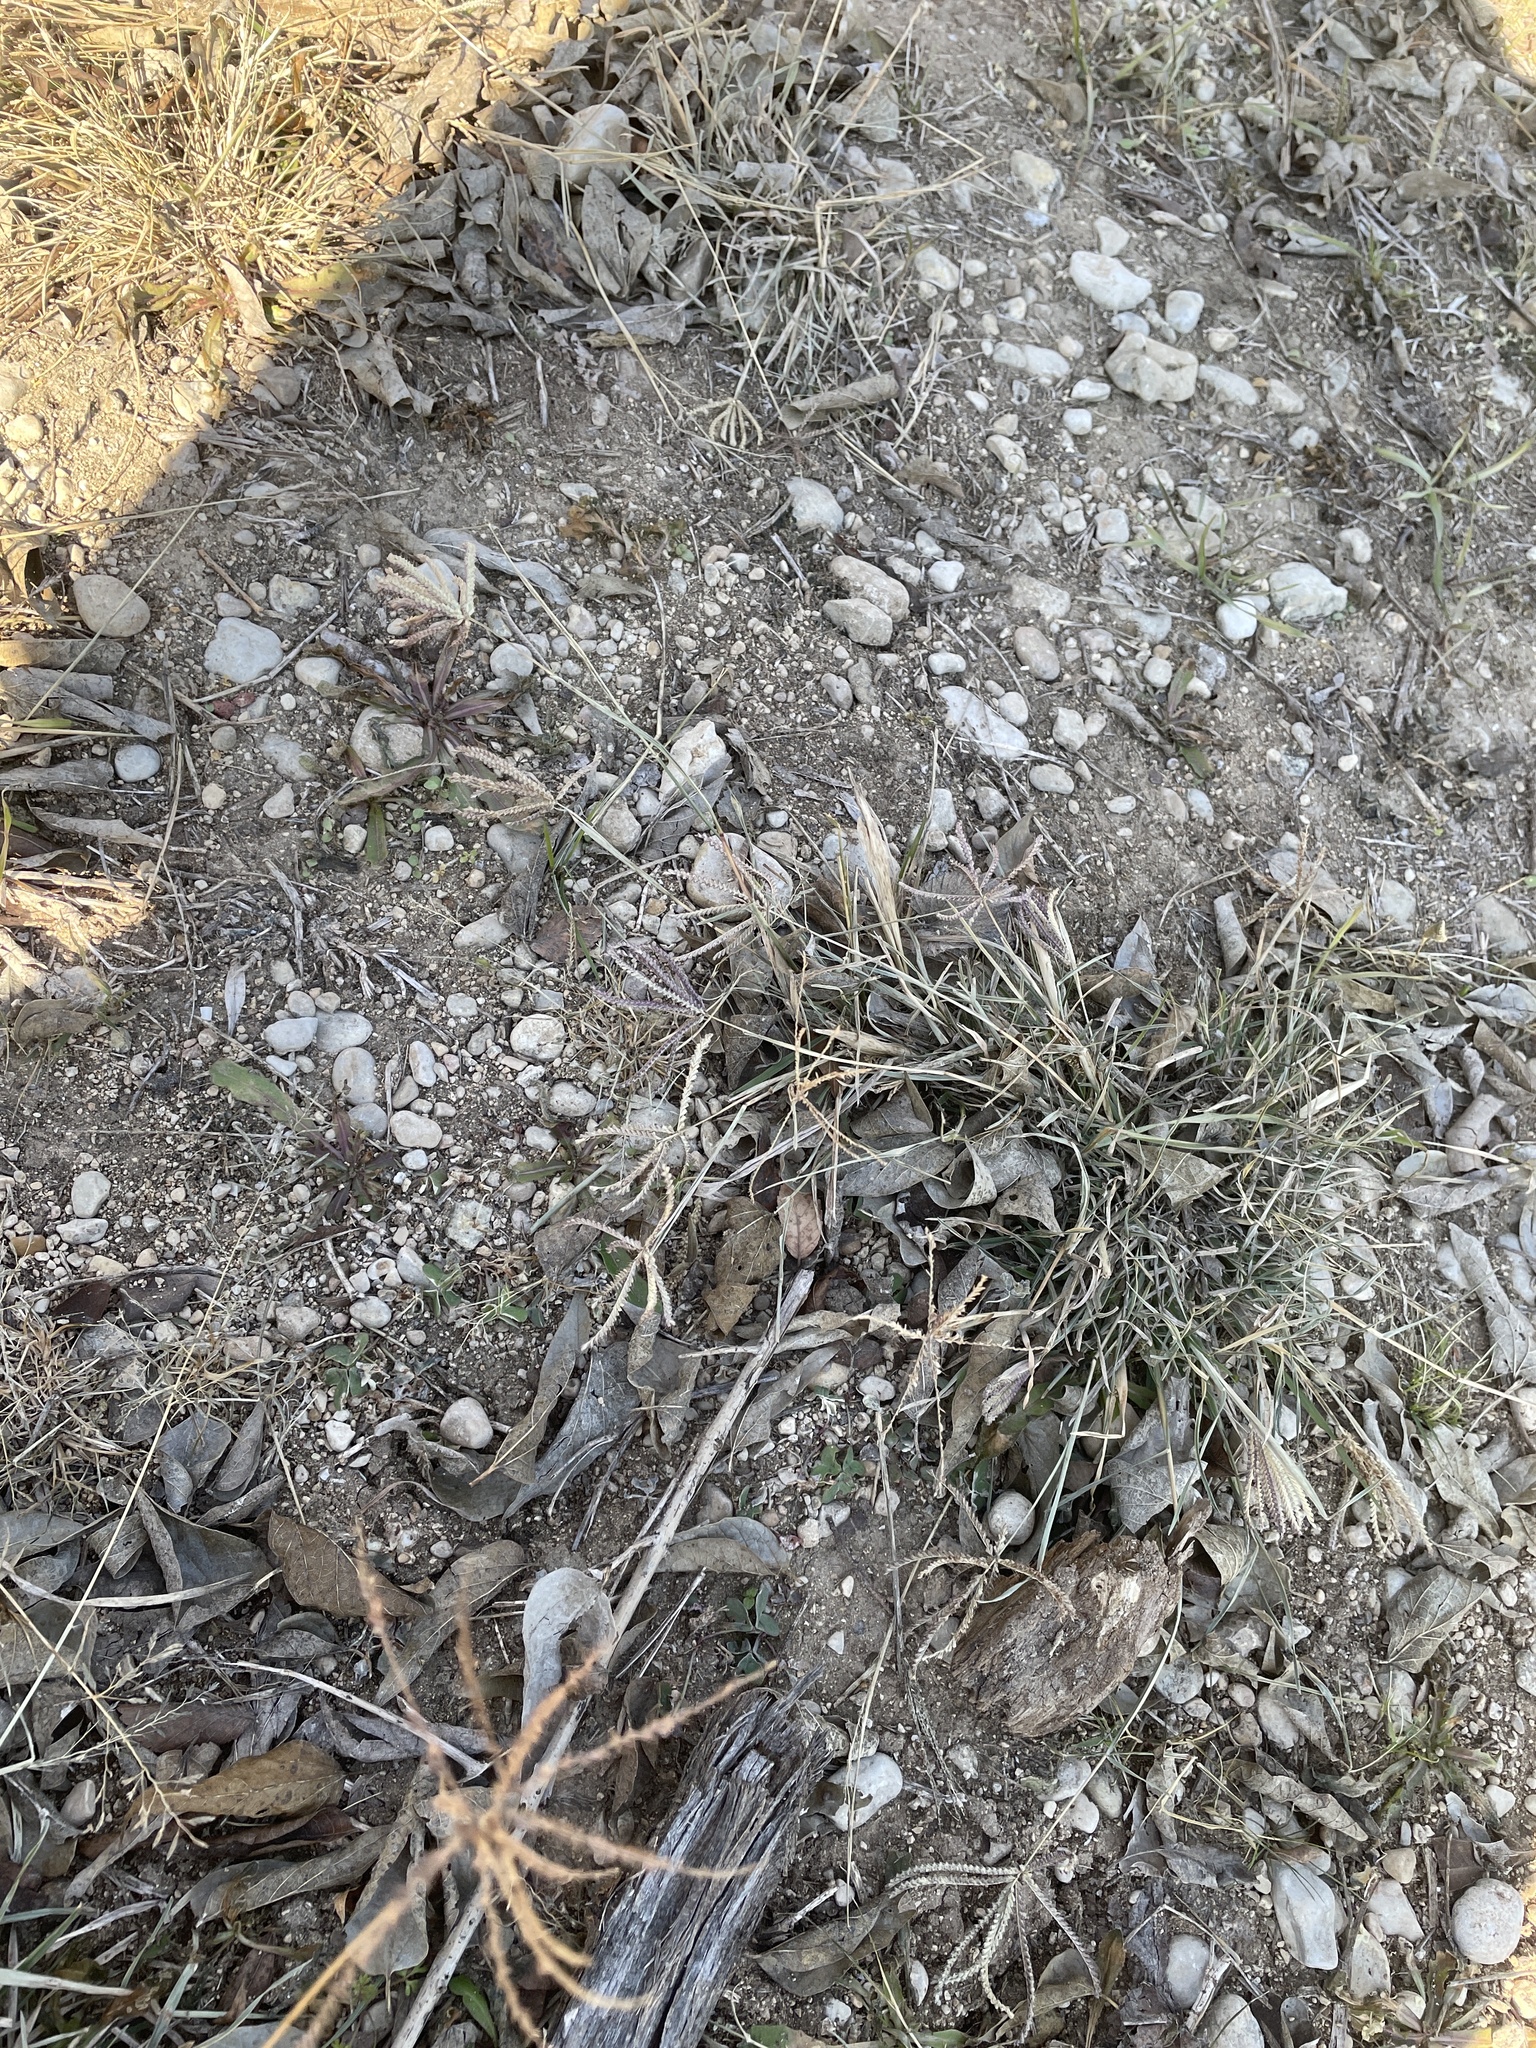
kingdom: Plantae
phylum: Tracheophyta
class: Liliopsida
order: Poales
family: Poaceae
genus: Chloris
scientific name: Chloris cucullata
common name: Hooded windmill grass
